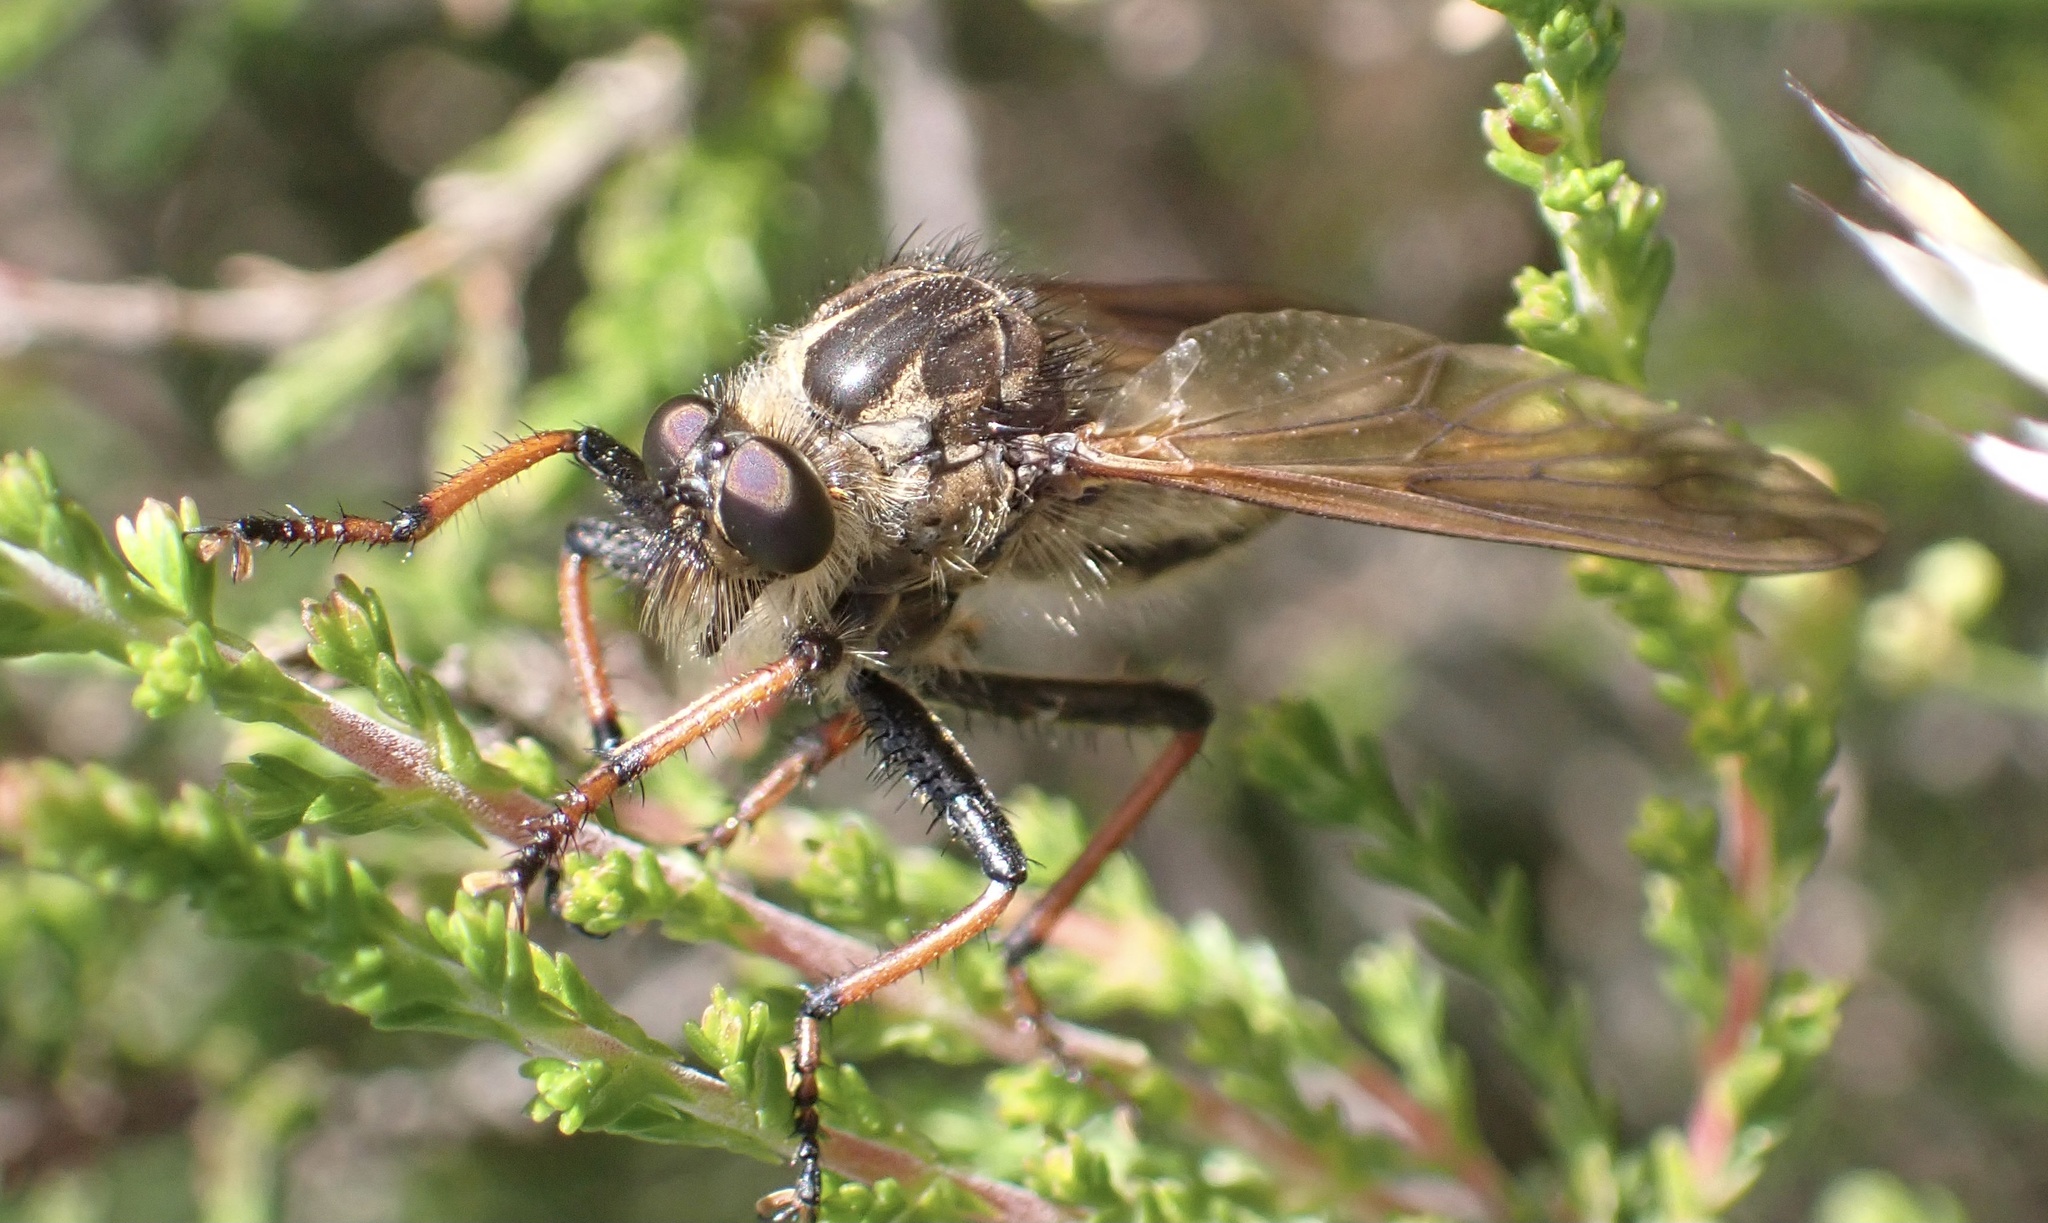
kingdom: Animalia
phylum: Arthropoda
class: Insecta
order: Diptera
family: Asilidae
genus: Pamponerus
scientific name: Pamponerus germanicus
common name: Pied-winged robberfly
